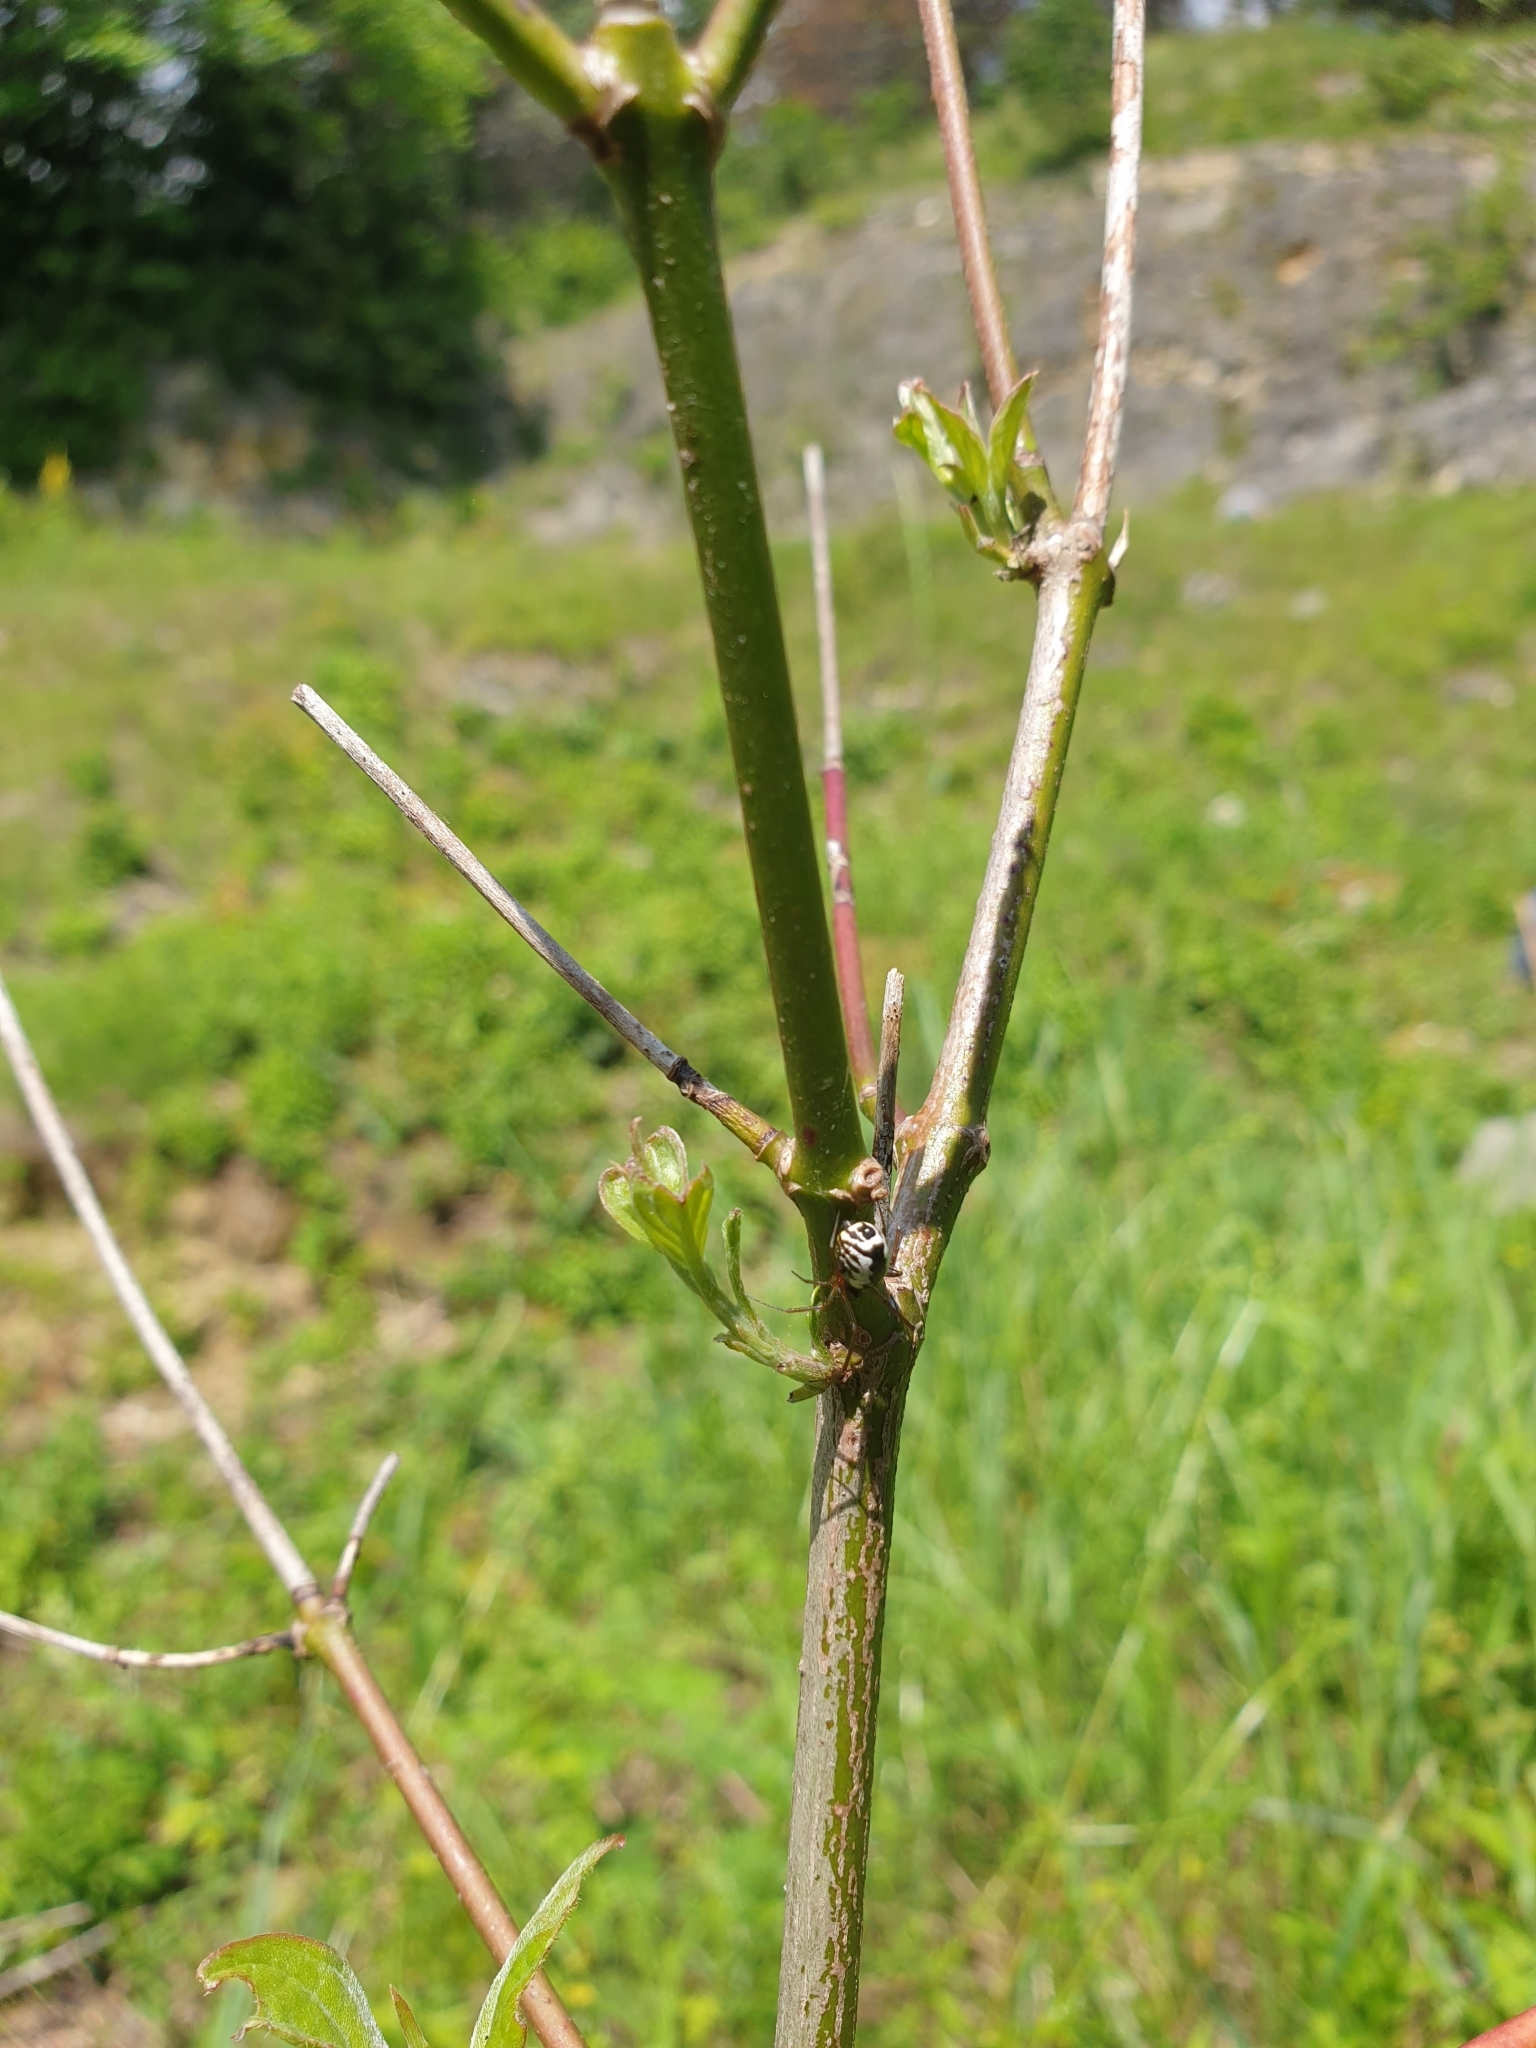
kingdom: Animalia
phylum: Arthropoda
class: Arachnida
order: Araneae
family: Linyphiidae
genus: Frontinellina
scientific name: Frontinellina frutetorum
